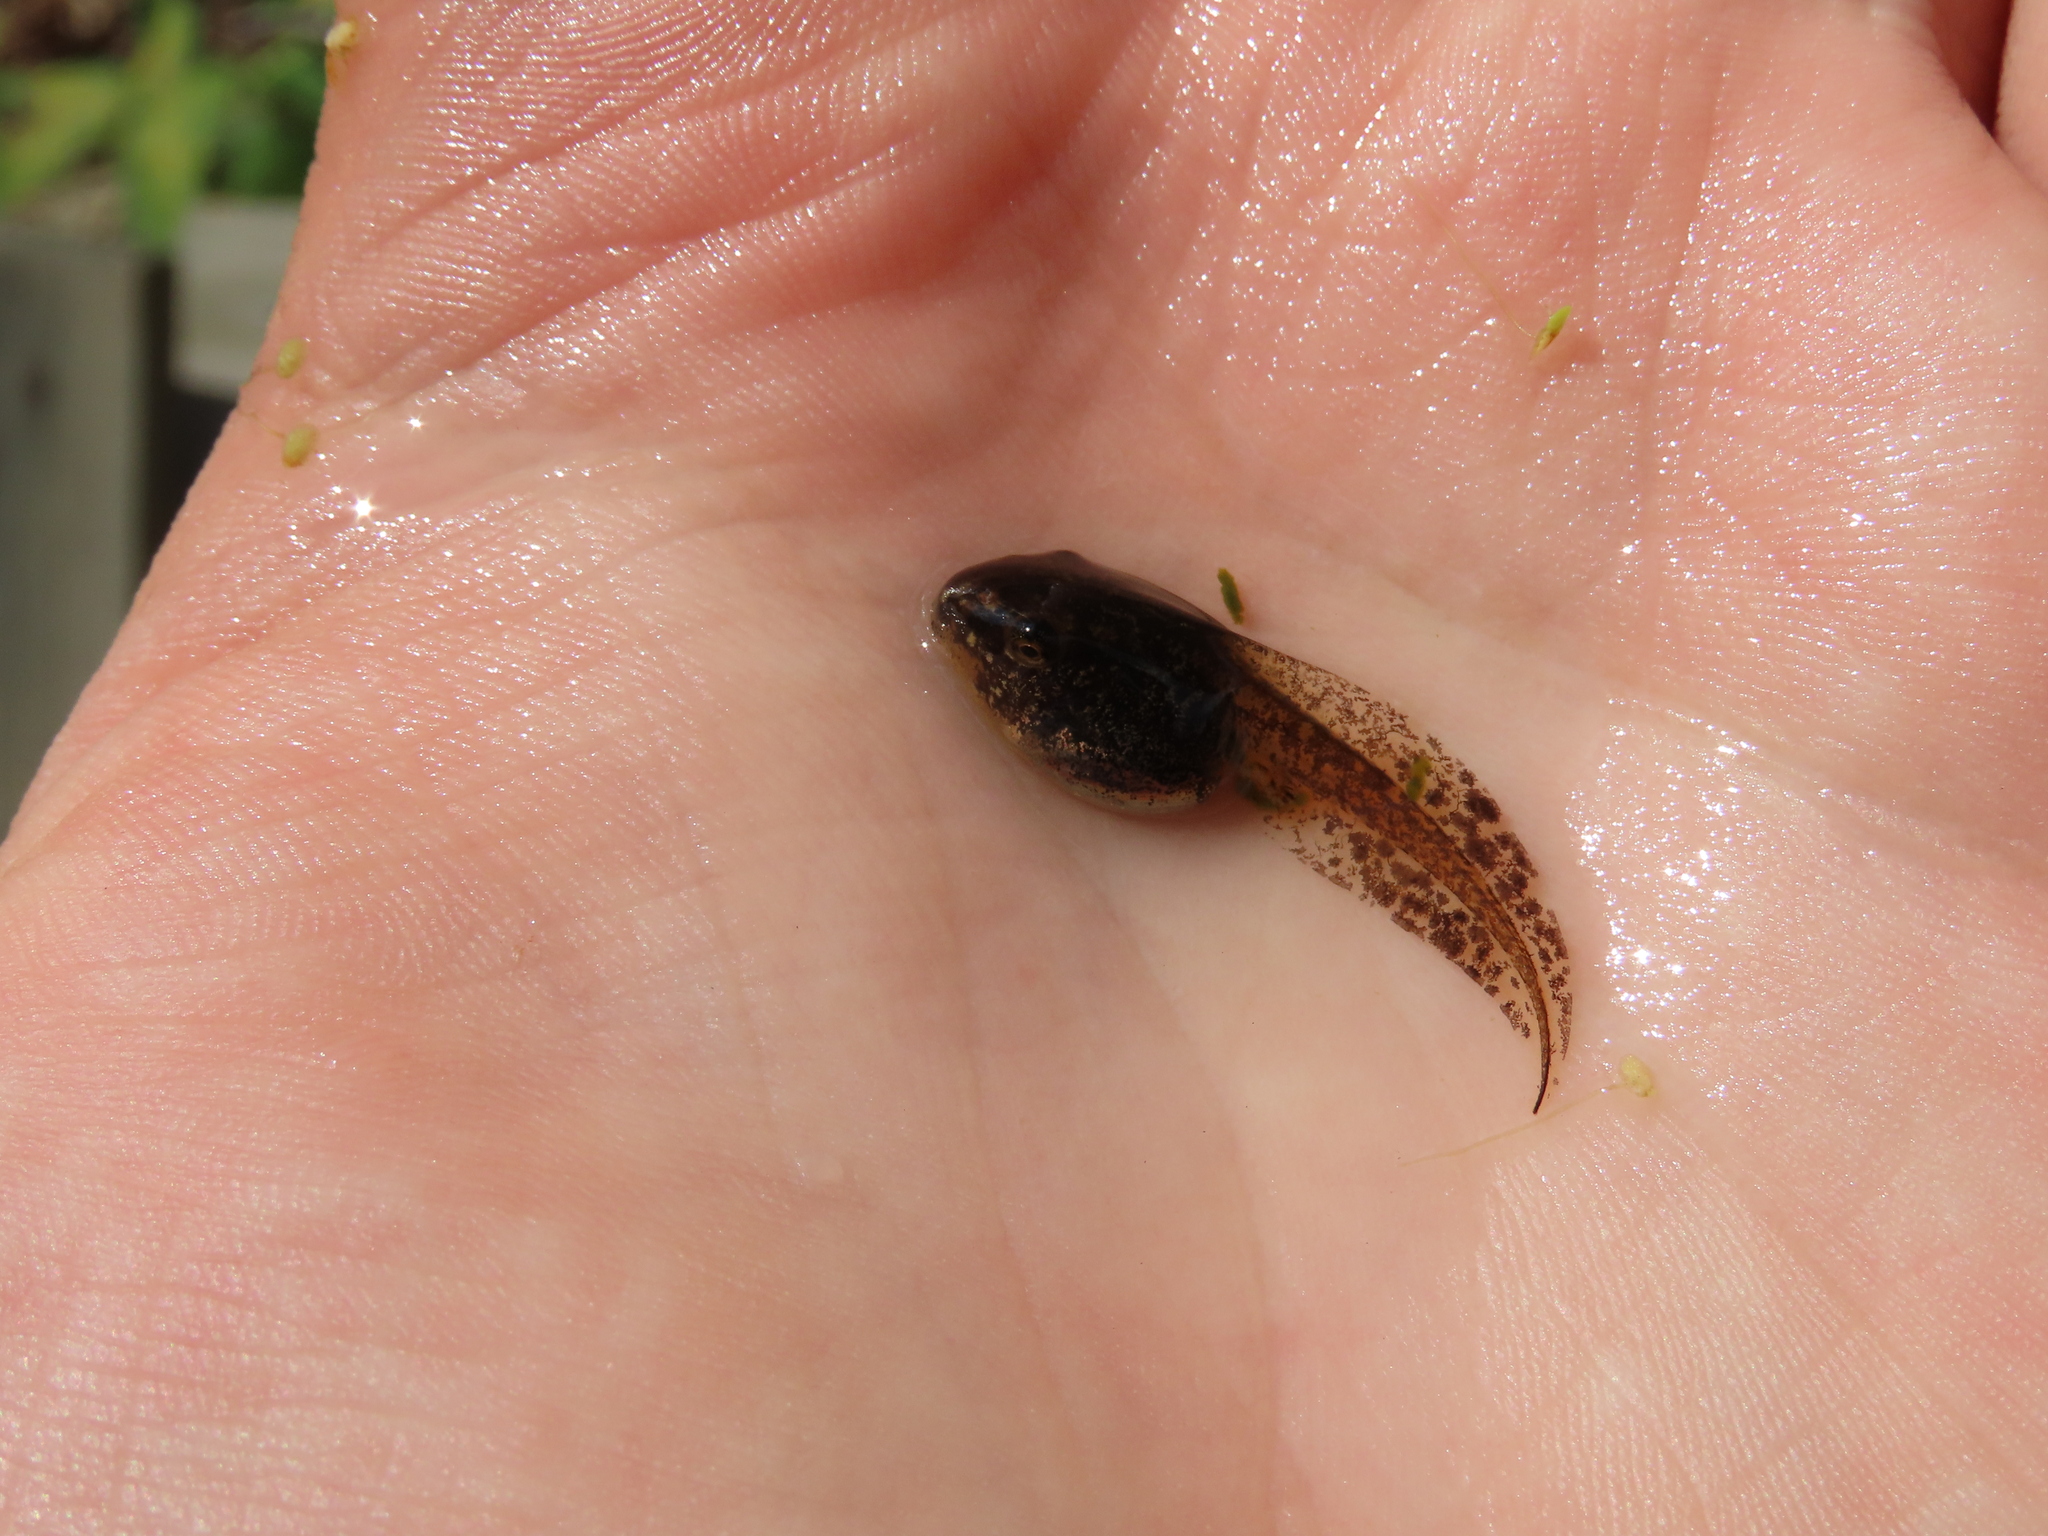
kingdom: Animalia
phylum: Chordata
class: Amphibia
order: Anura
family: Hylidae
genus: Dryophytes
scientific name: Dryophytes versicolor
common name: Gray treefrog
